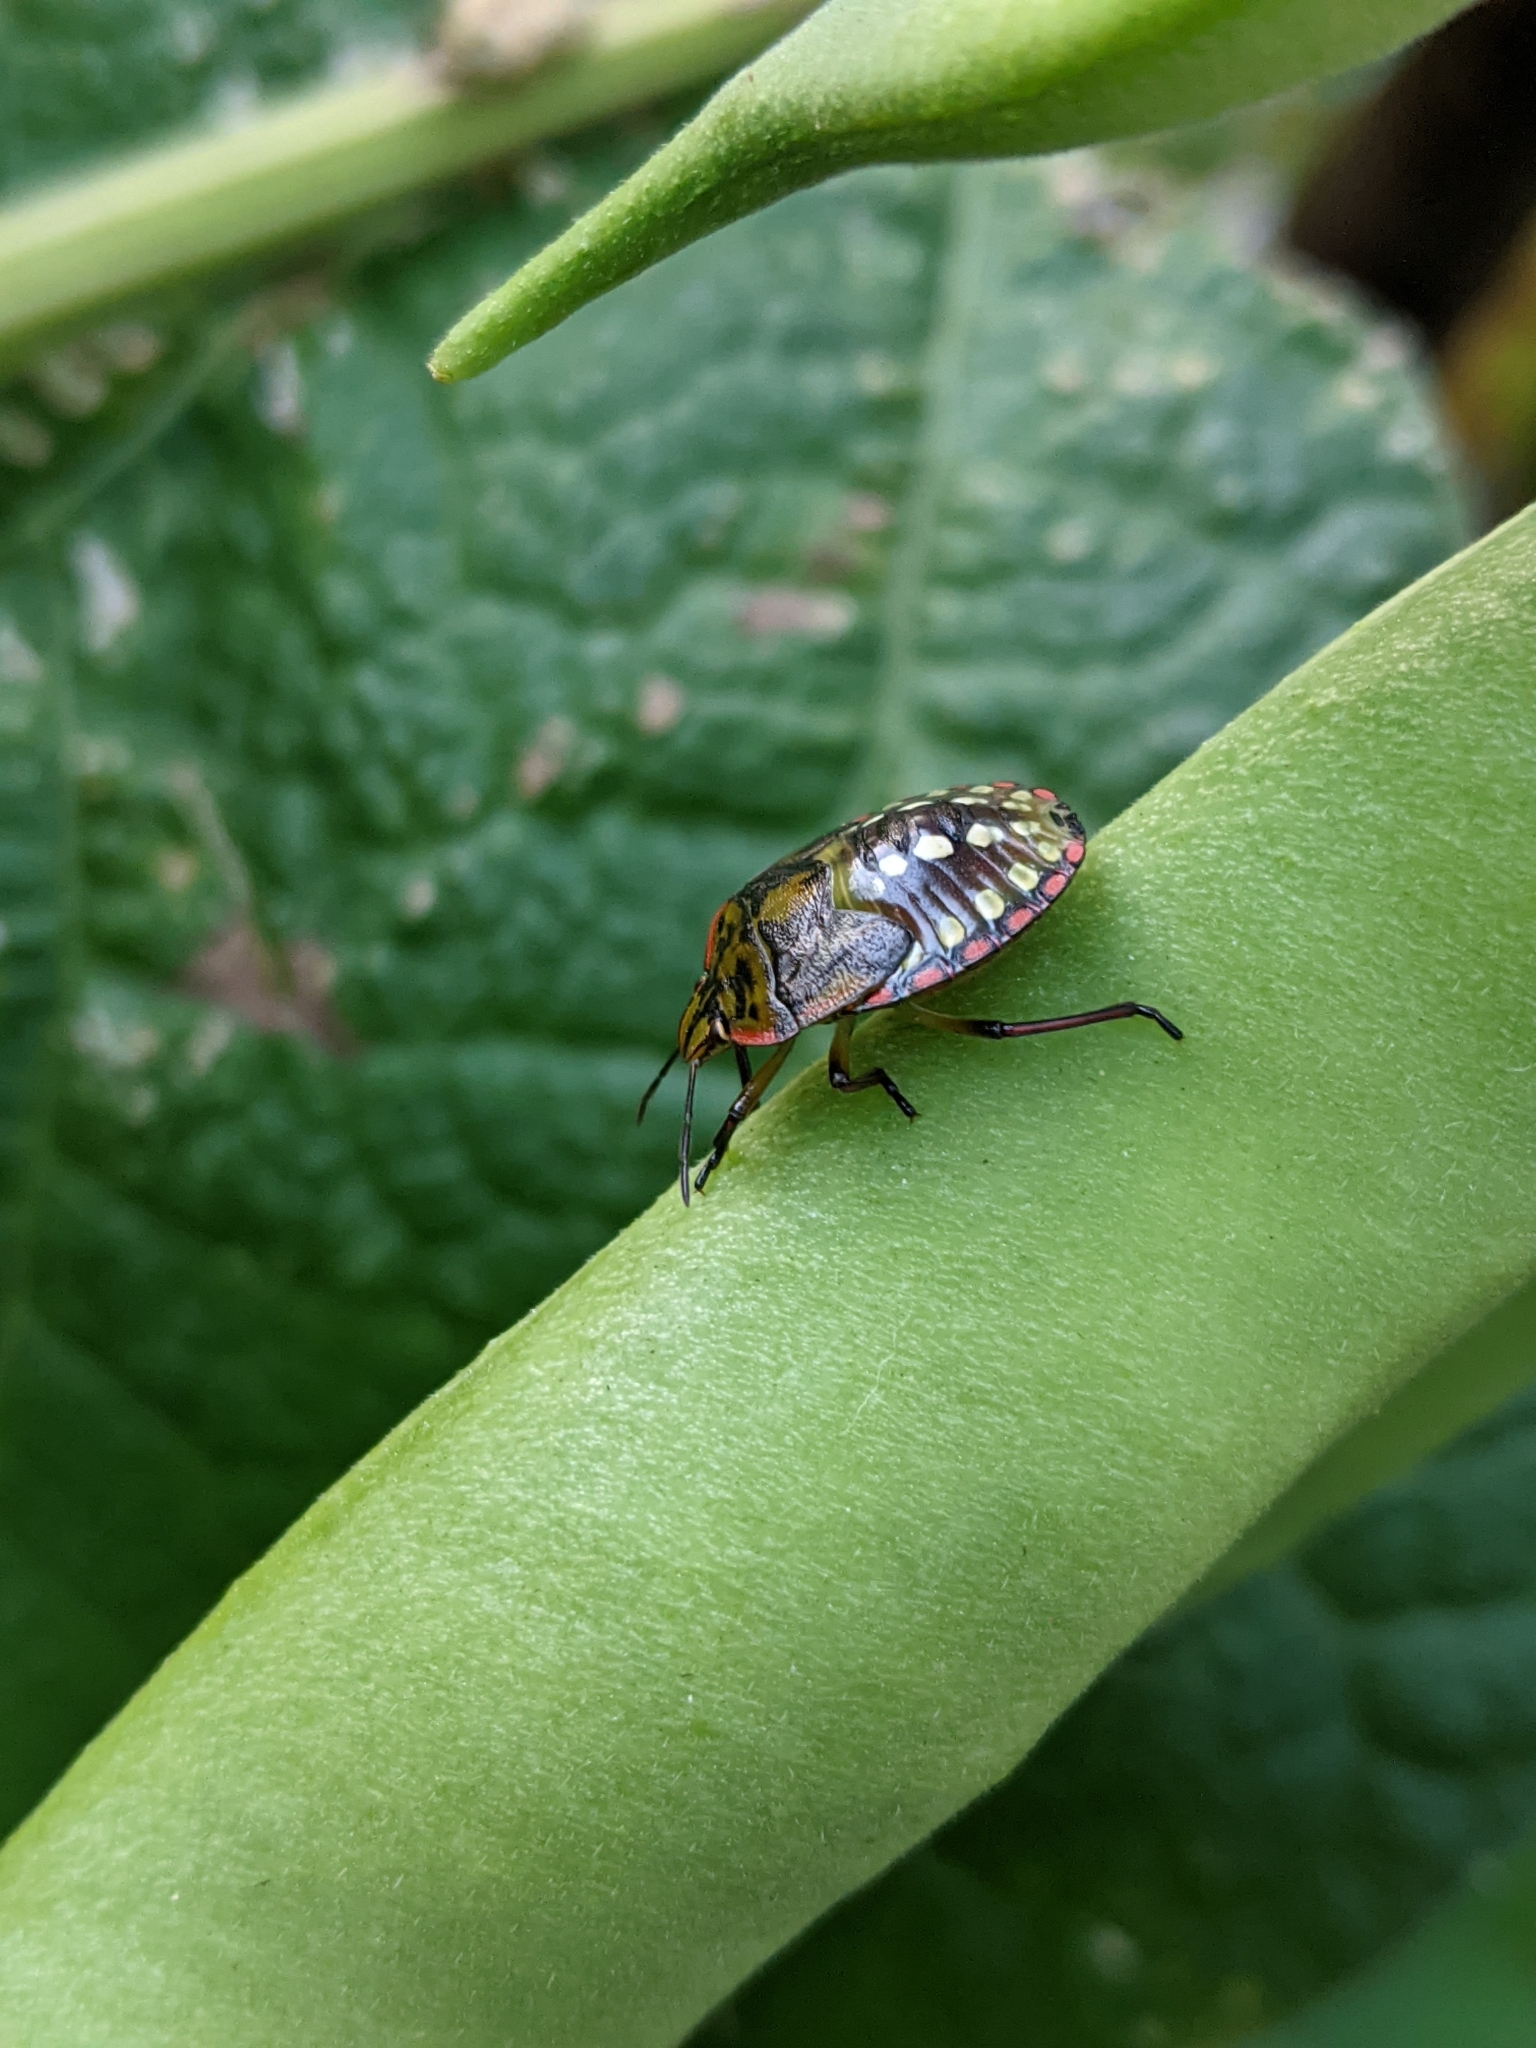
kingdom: Animalia
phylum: Arthropoda
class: Insecta
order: Hemiptera
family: Pentatomidae
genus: Nezara
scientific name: Nezara viridula
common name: Southern green stink bug
